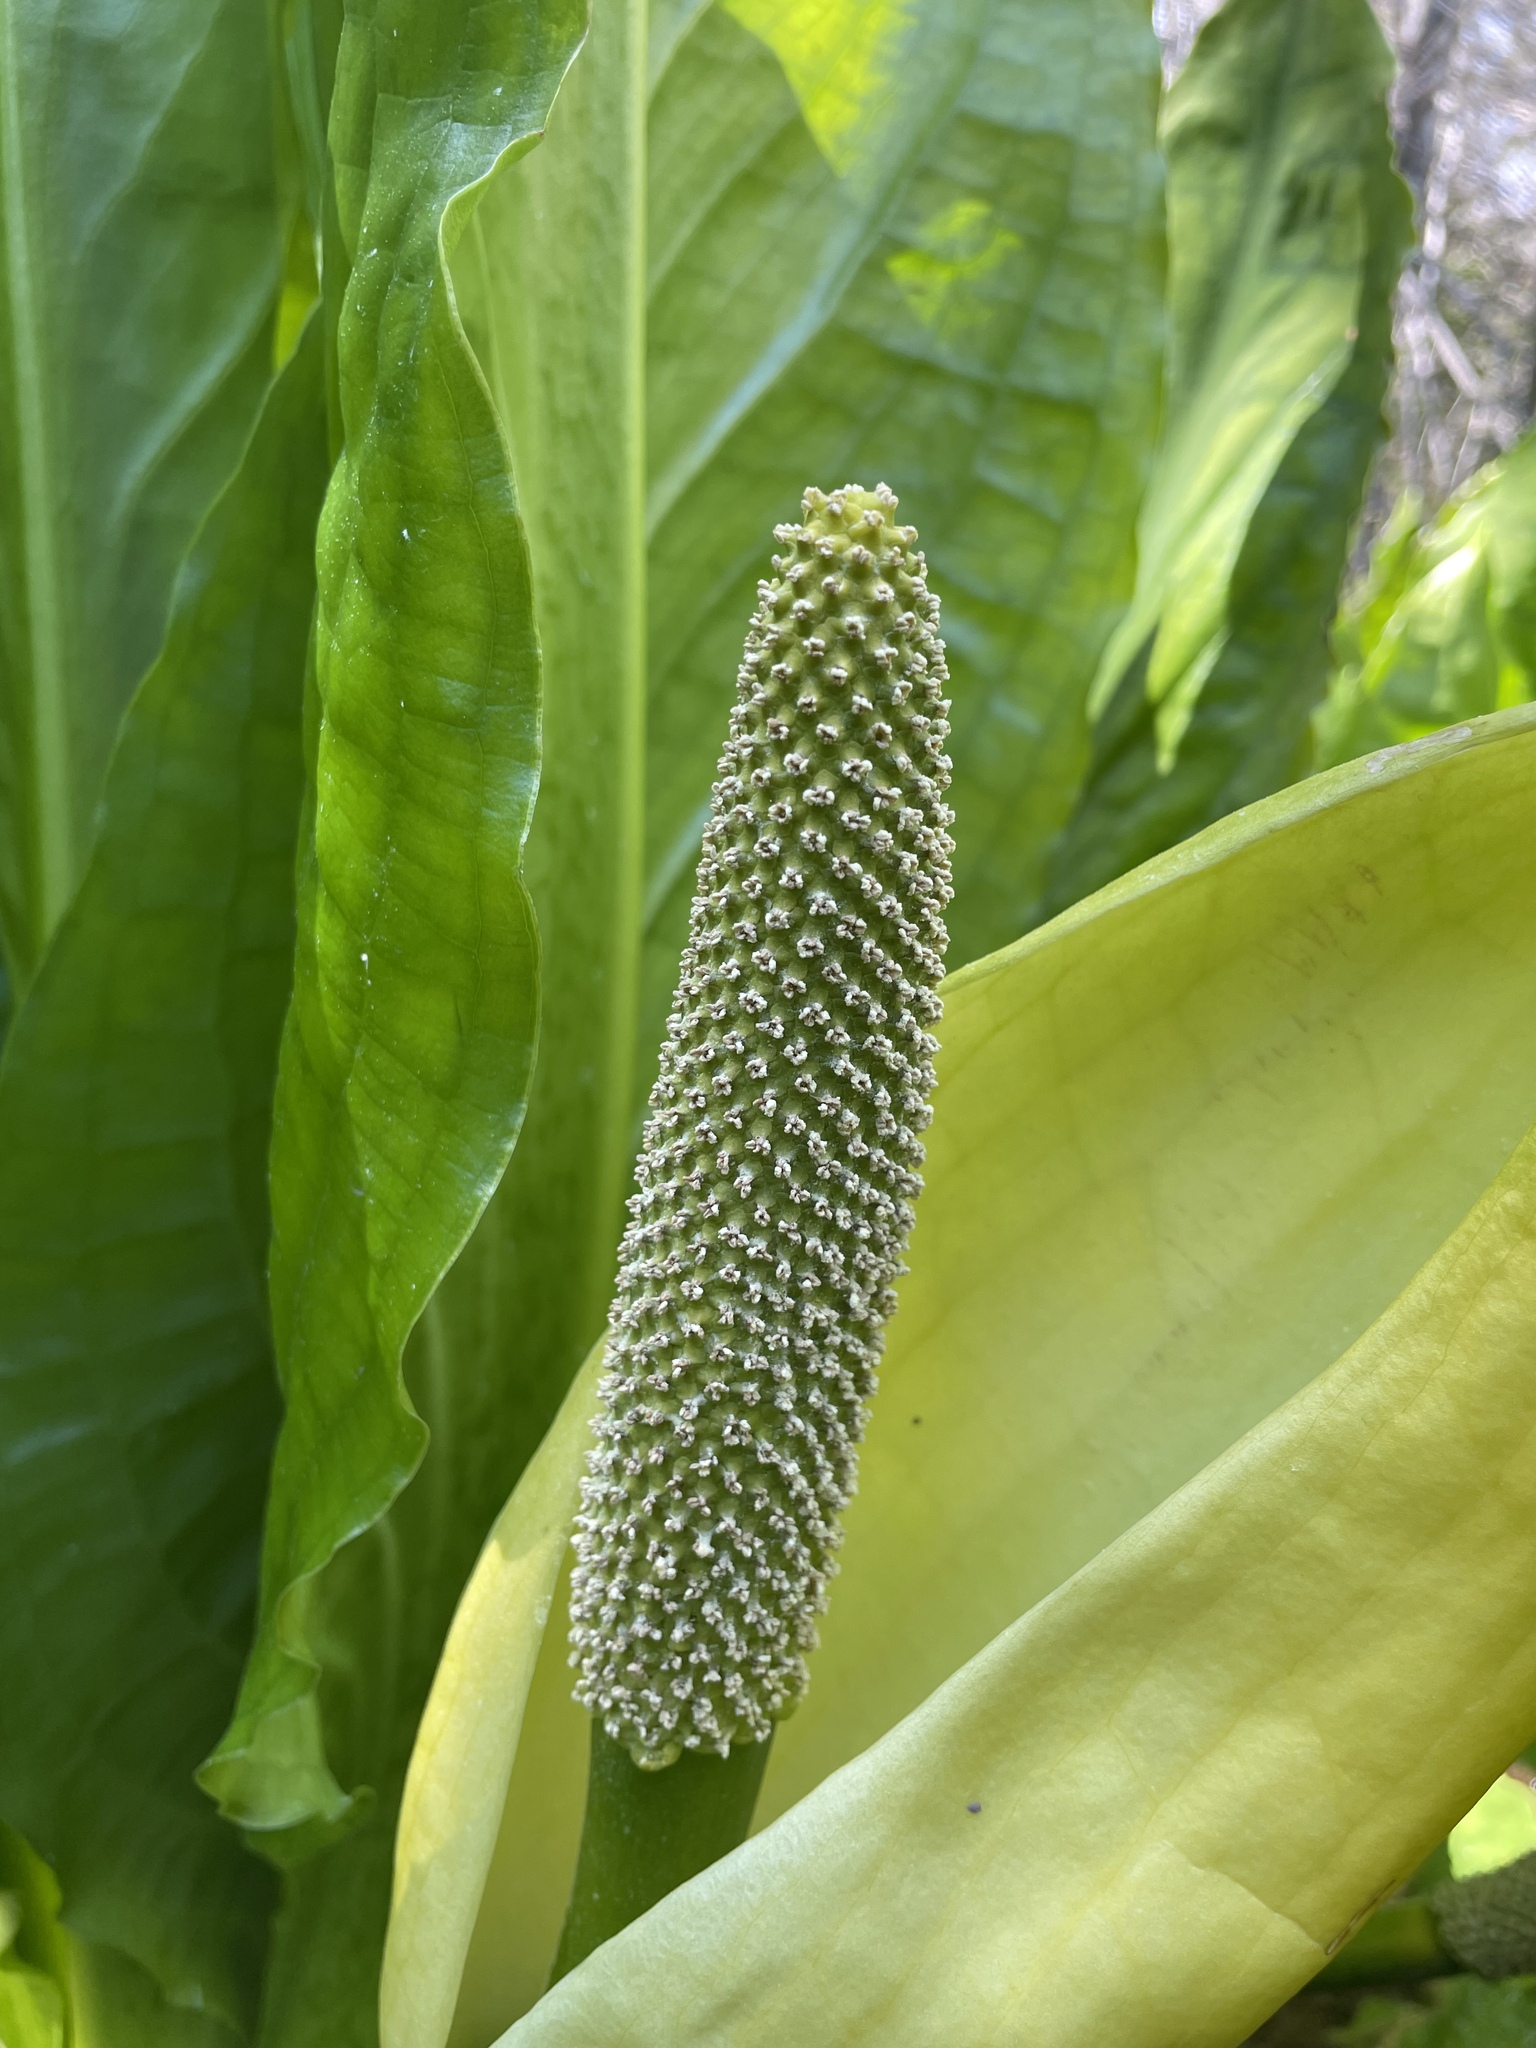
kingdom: Plantae
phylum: Tracheophyta
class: Liliopsida
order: Alismatales
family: Araceae
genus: Lysichiton
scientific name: Lysichiton americanus
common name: American skunk cabbage
